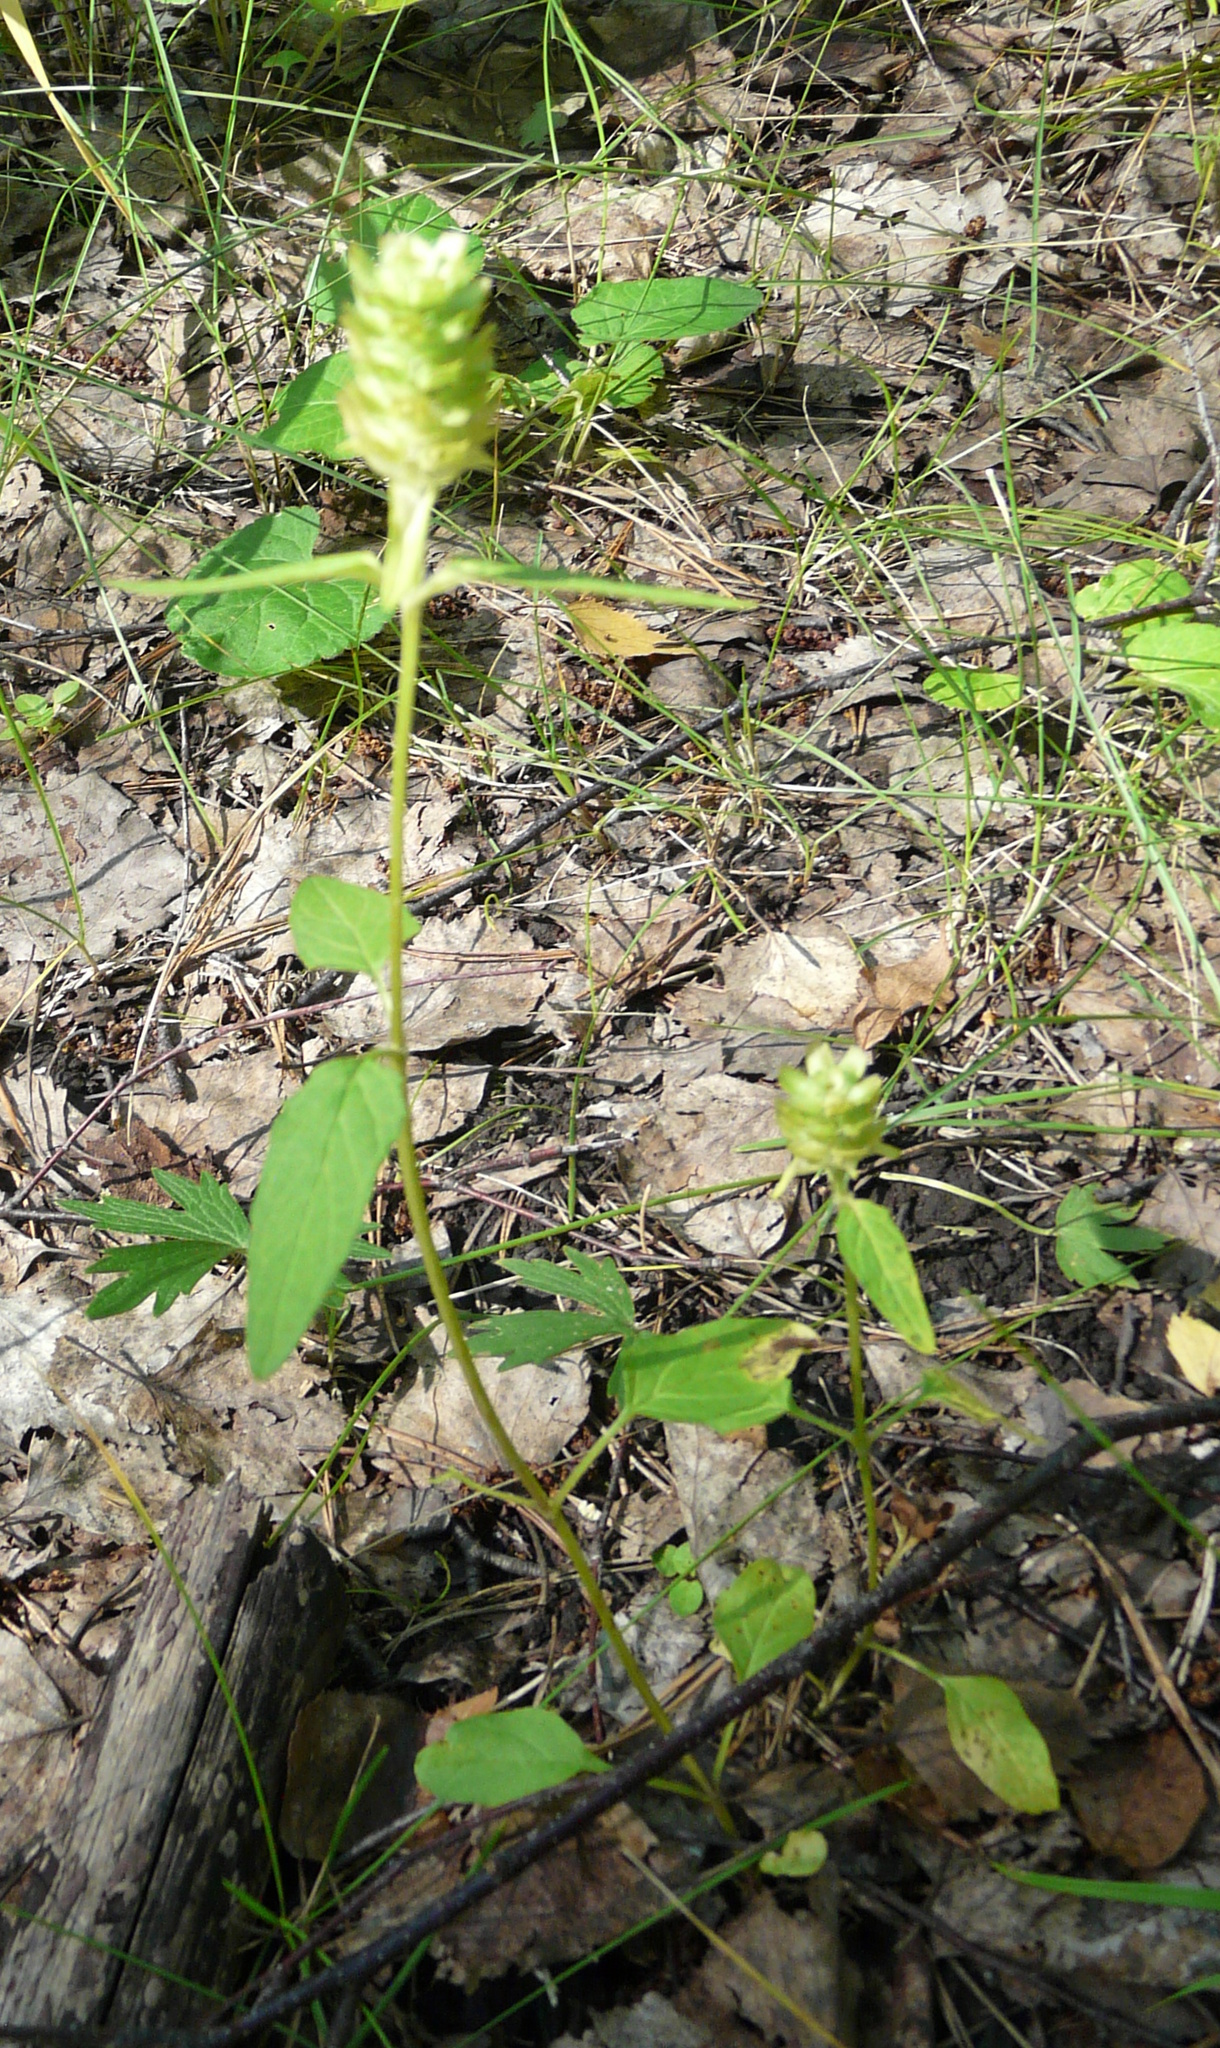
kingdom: Plantae
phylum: Tracheophyta
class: Magnoliopsida
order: Lamiales
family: Lamiaceae
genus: Prunella
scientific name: Prunella vulgaris
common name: Heal-all
